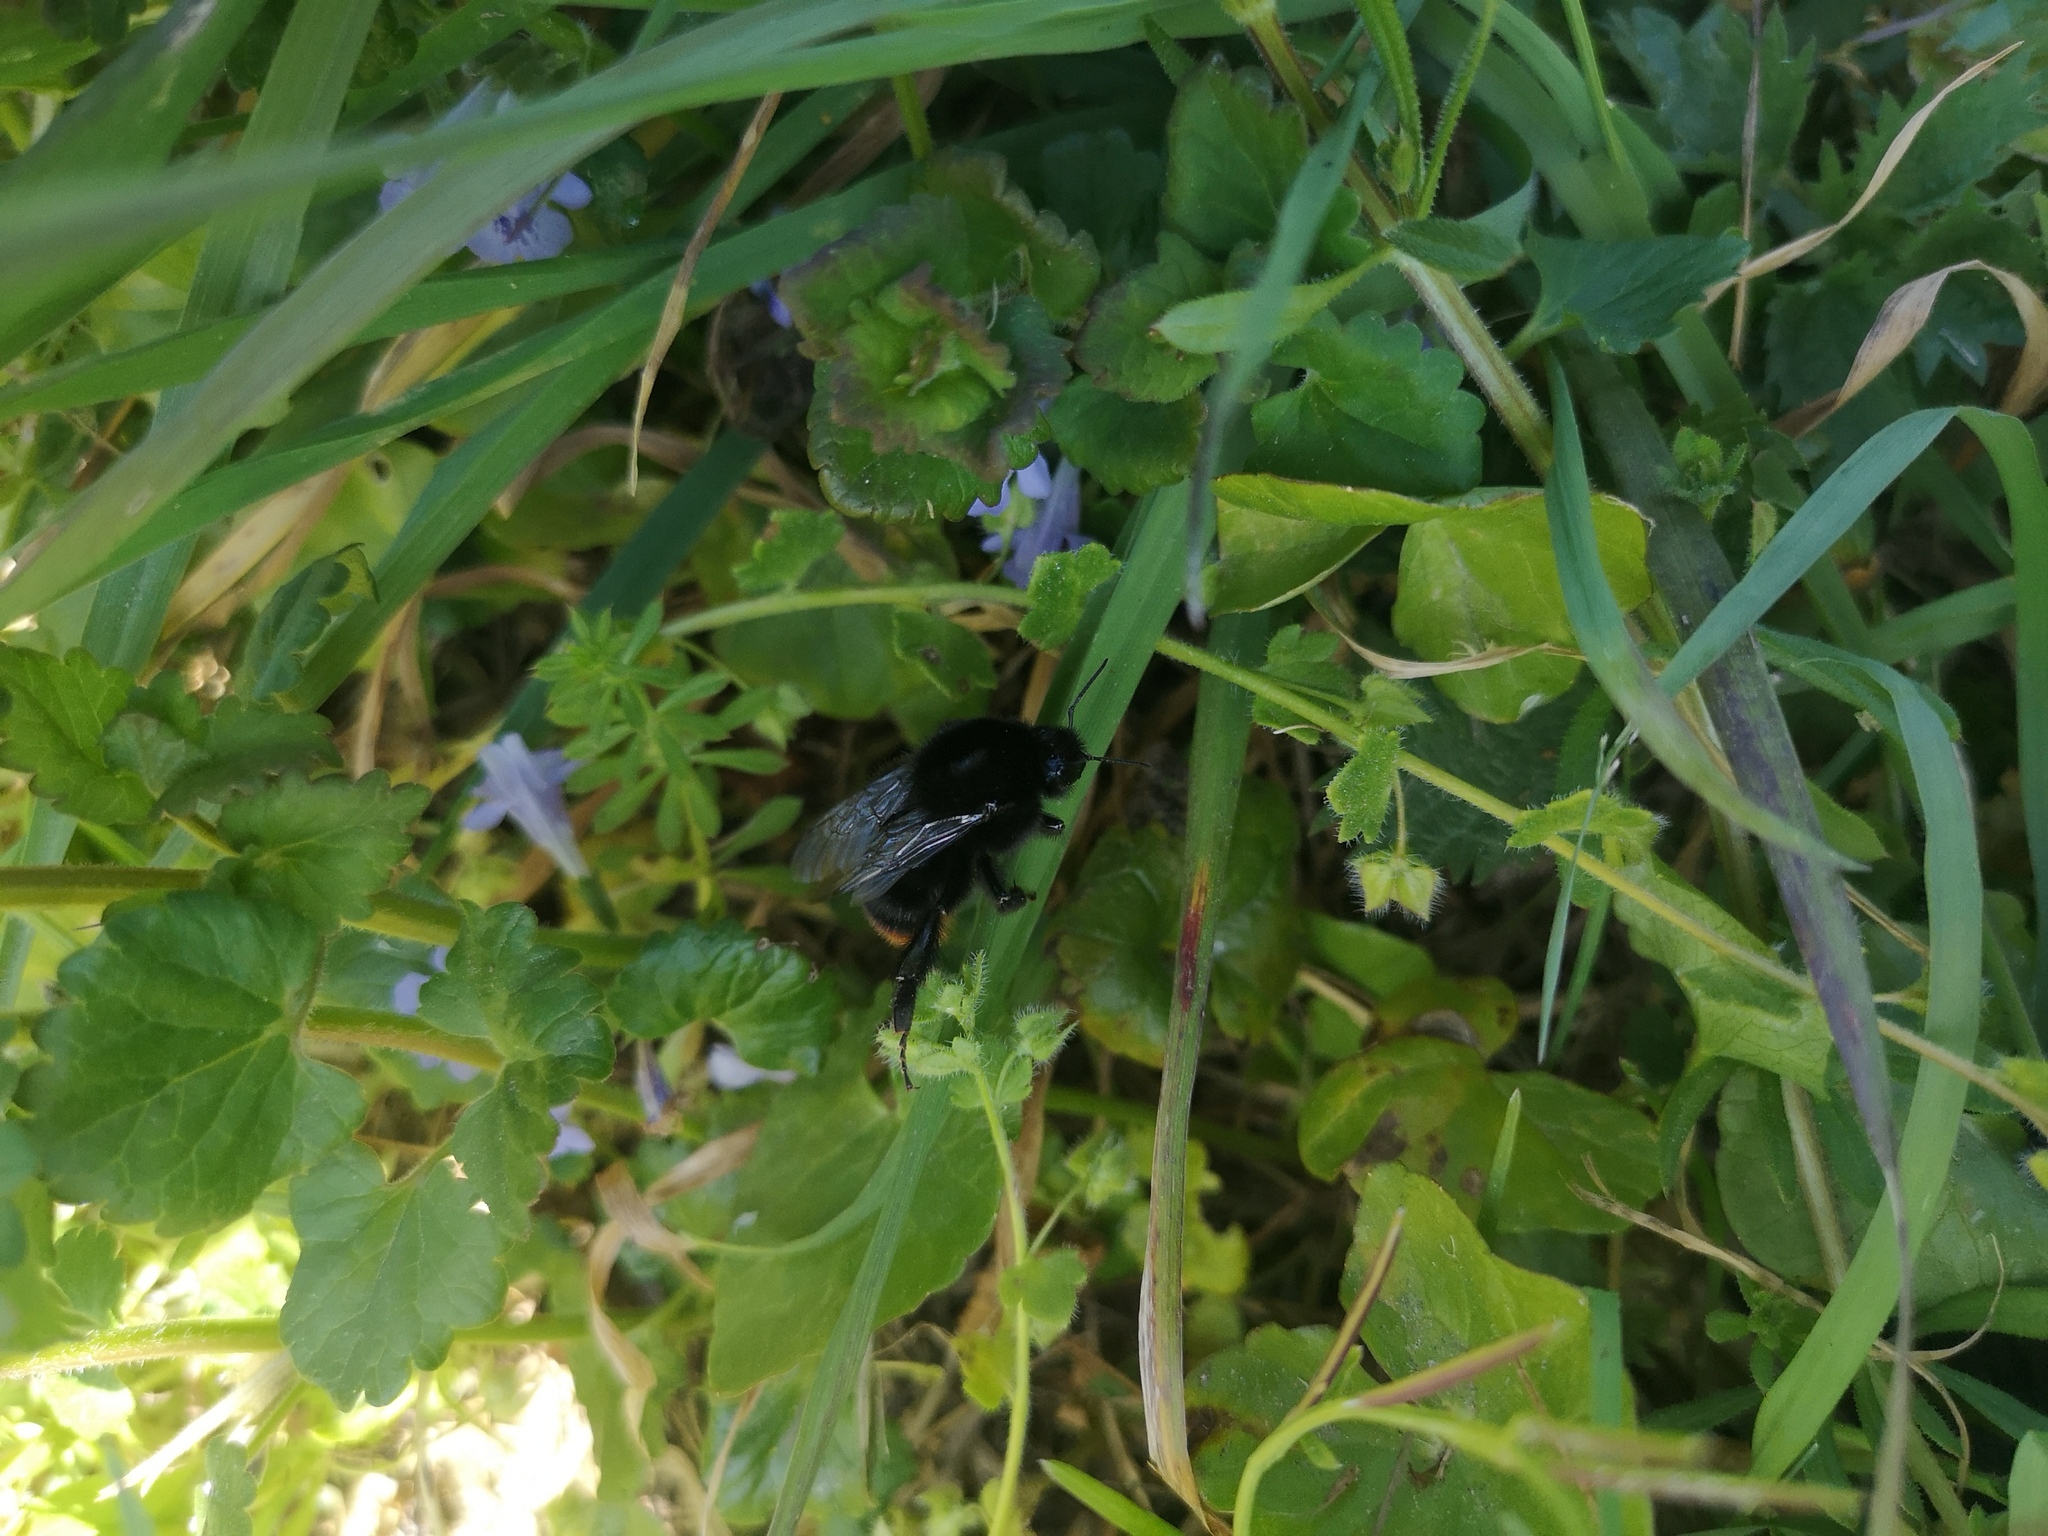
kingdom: Animalia
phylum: Arthropoda
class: Insecta
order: Hymenoptera
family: Apidae
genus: Bombus
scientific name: Bombus lapidarius
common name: Large red-tailed humble-bee
